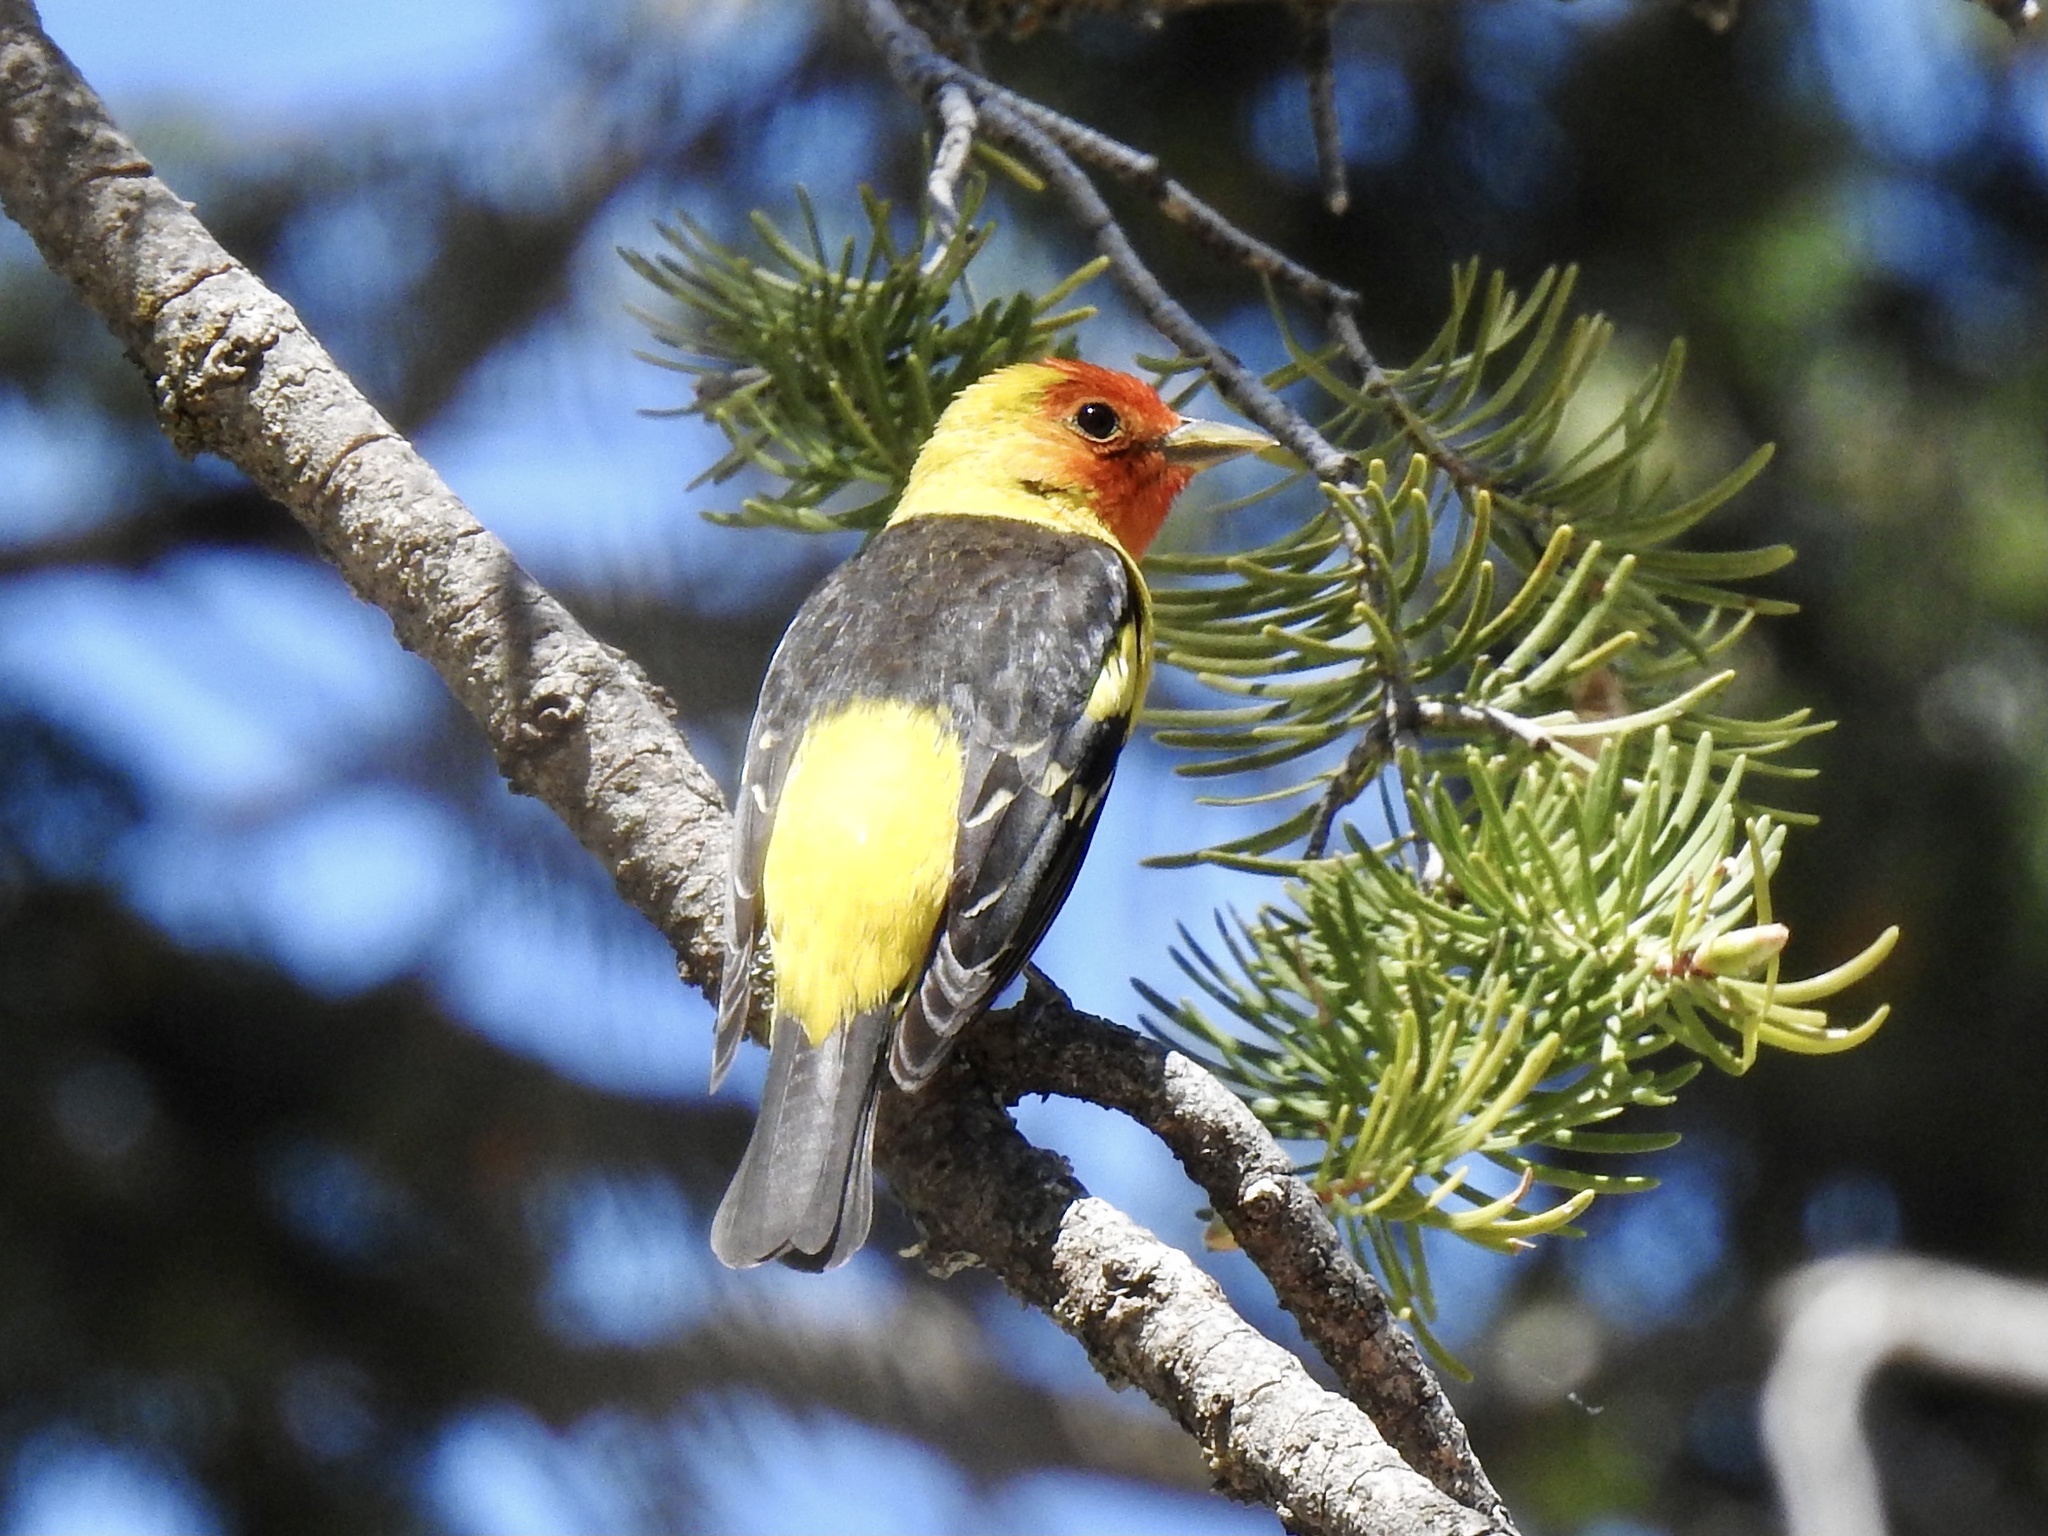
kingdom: Animalia
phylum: Chordata
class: Aves
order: Passeriformes
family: Cardinalidae
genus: Piranga
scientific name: Piranga ludoviciana
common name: Western tanager
